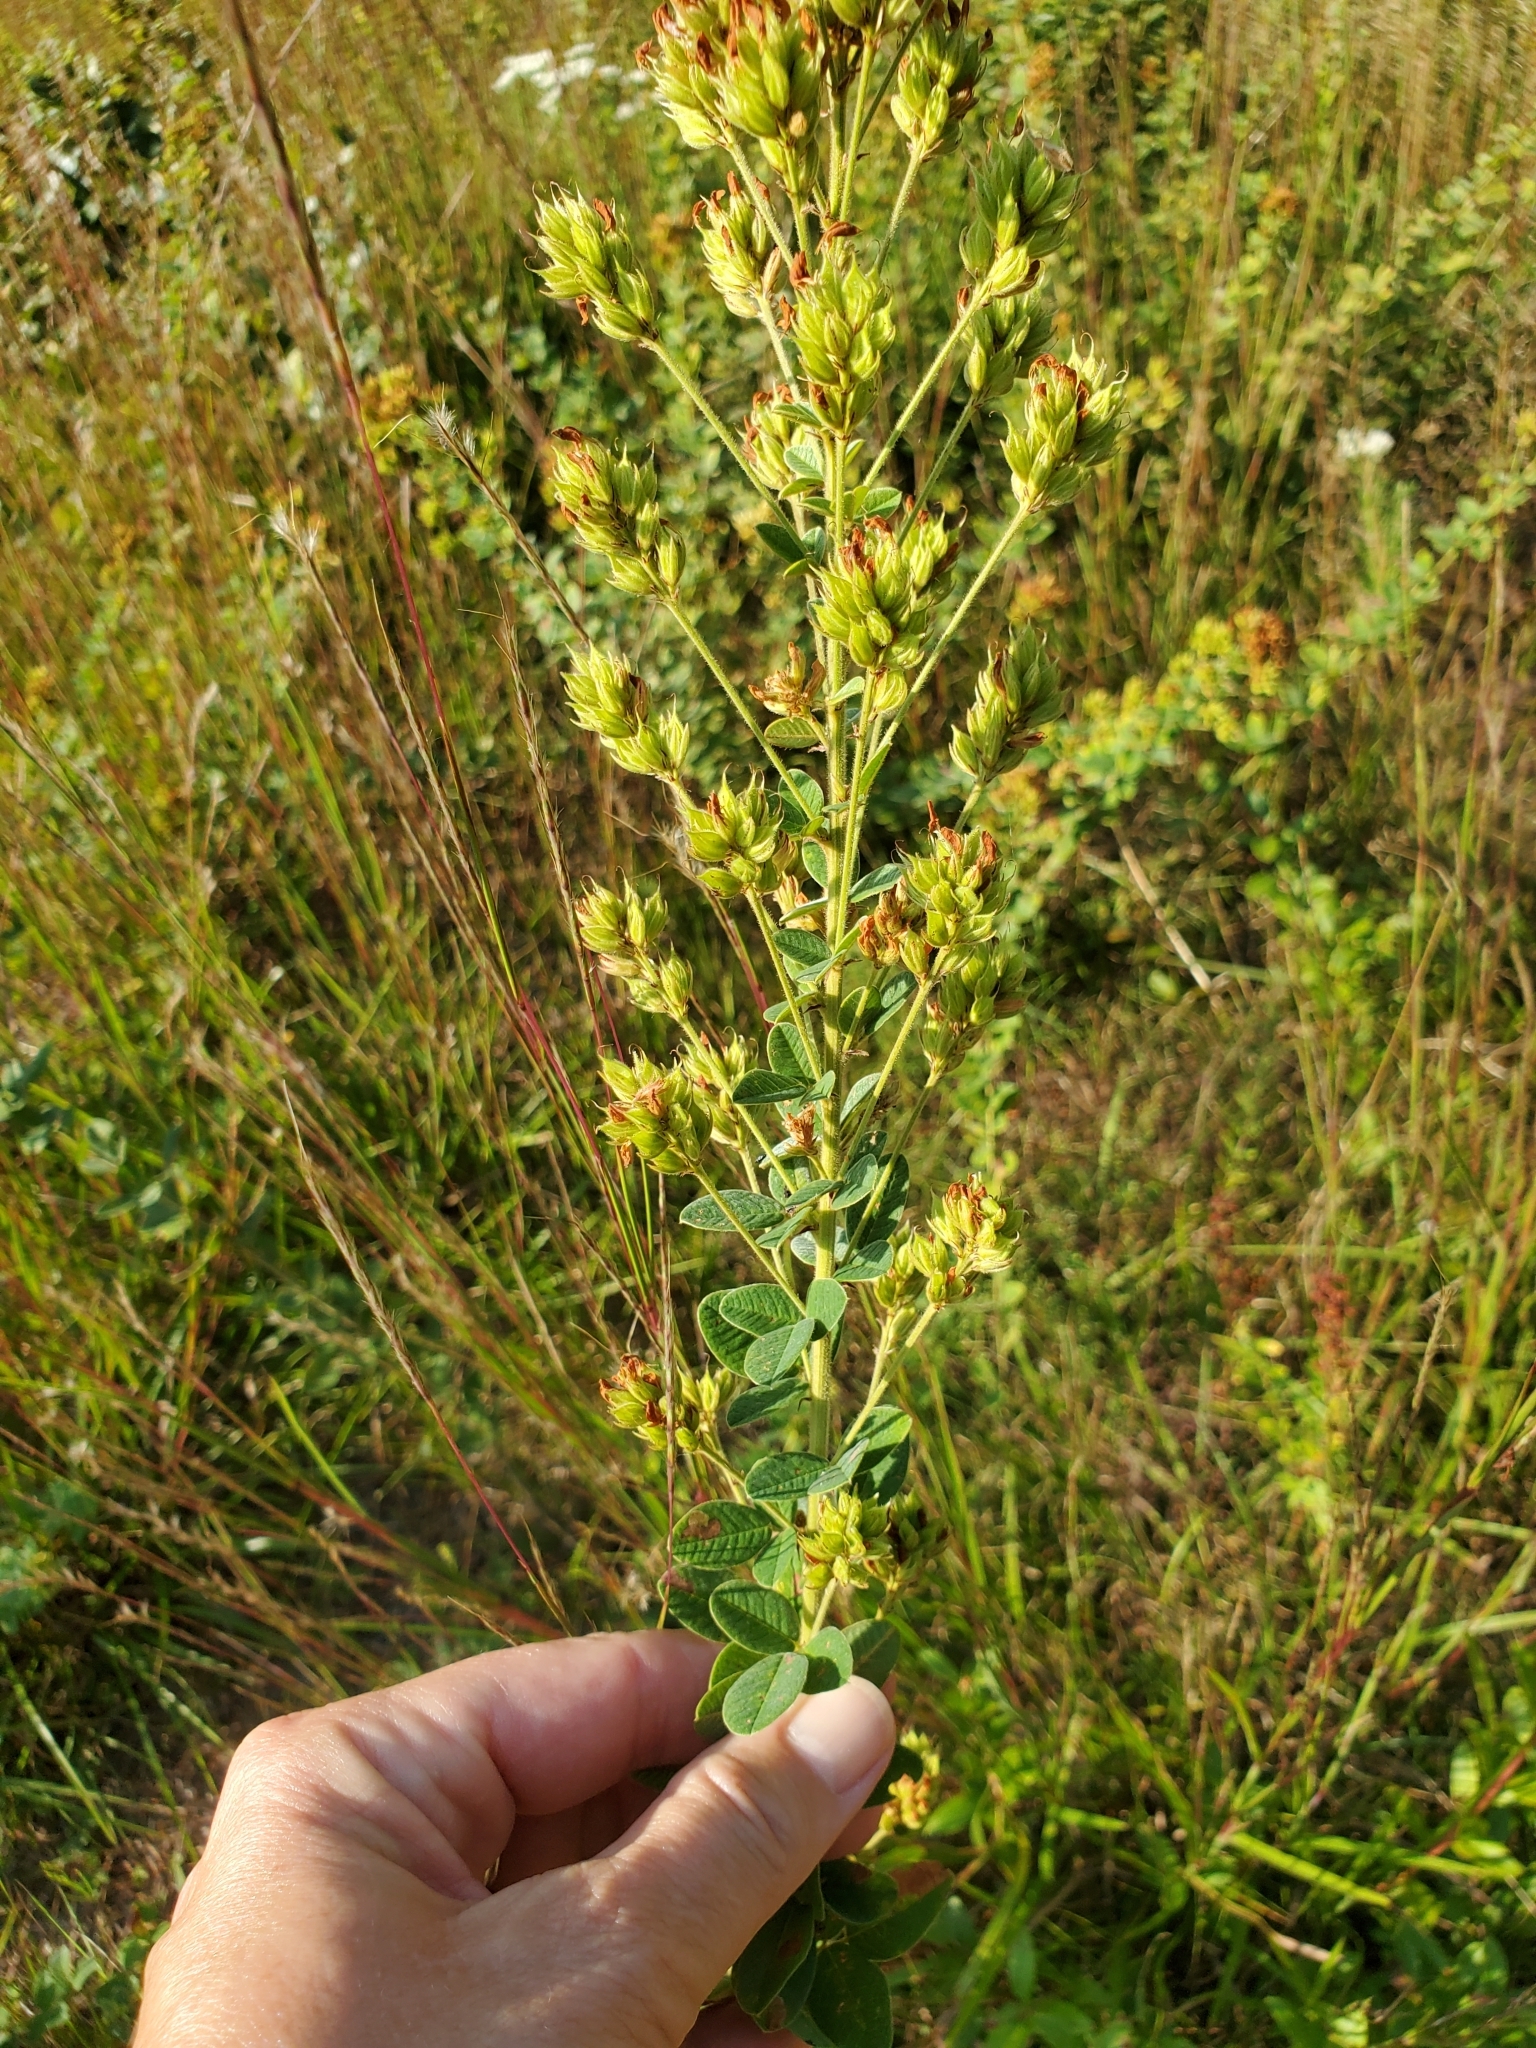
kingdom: Plantae
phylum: Tracheophyta
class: Magnoliopsida
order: Fabales
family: Fabaceae
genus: Lespedeza
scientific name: Lespedeza hirta
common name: Hairy lespedeza
